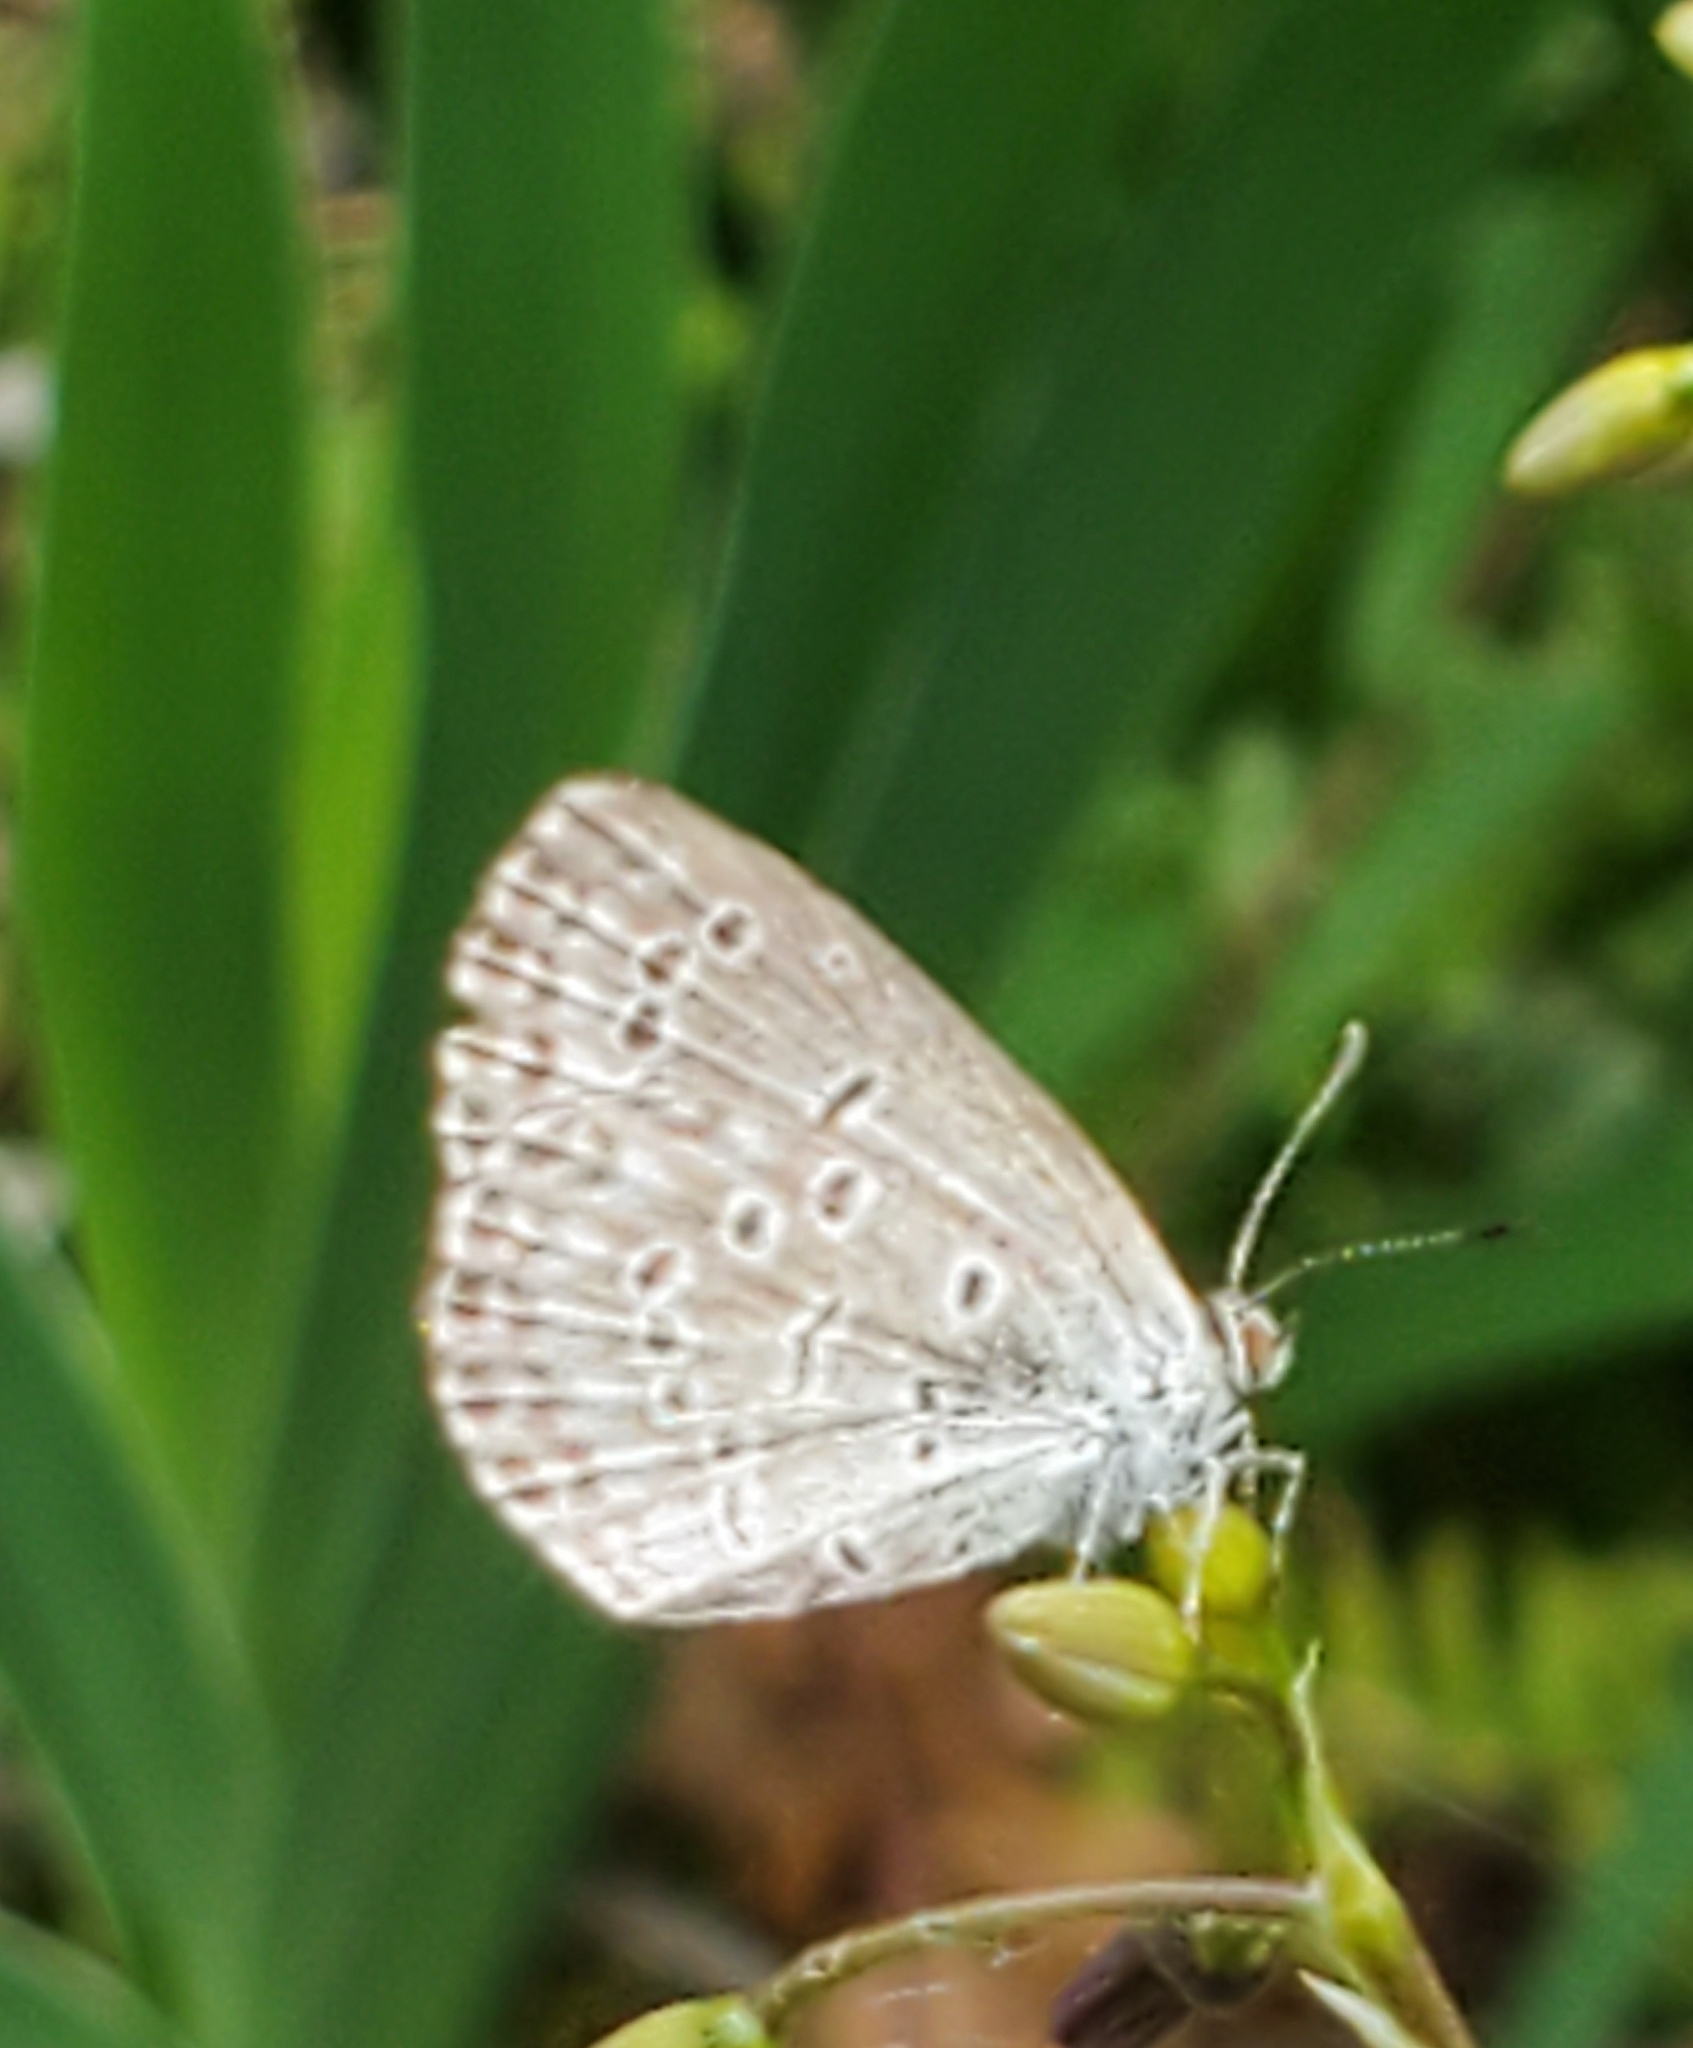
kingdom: Animalia
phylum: Arthropoda
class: Insecta
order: Lepidoptera
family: Lycaenidae
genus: Pseudozizeeria
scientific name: Pseudozizeeria maha
